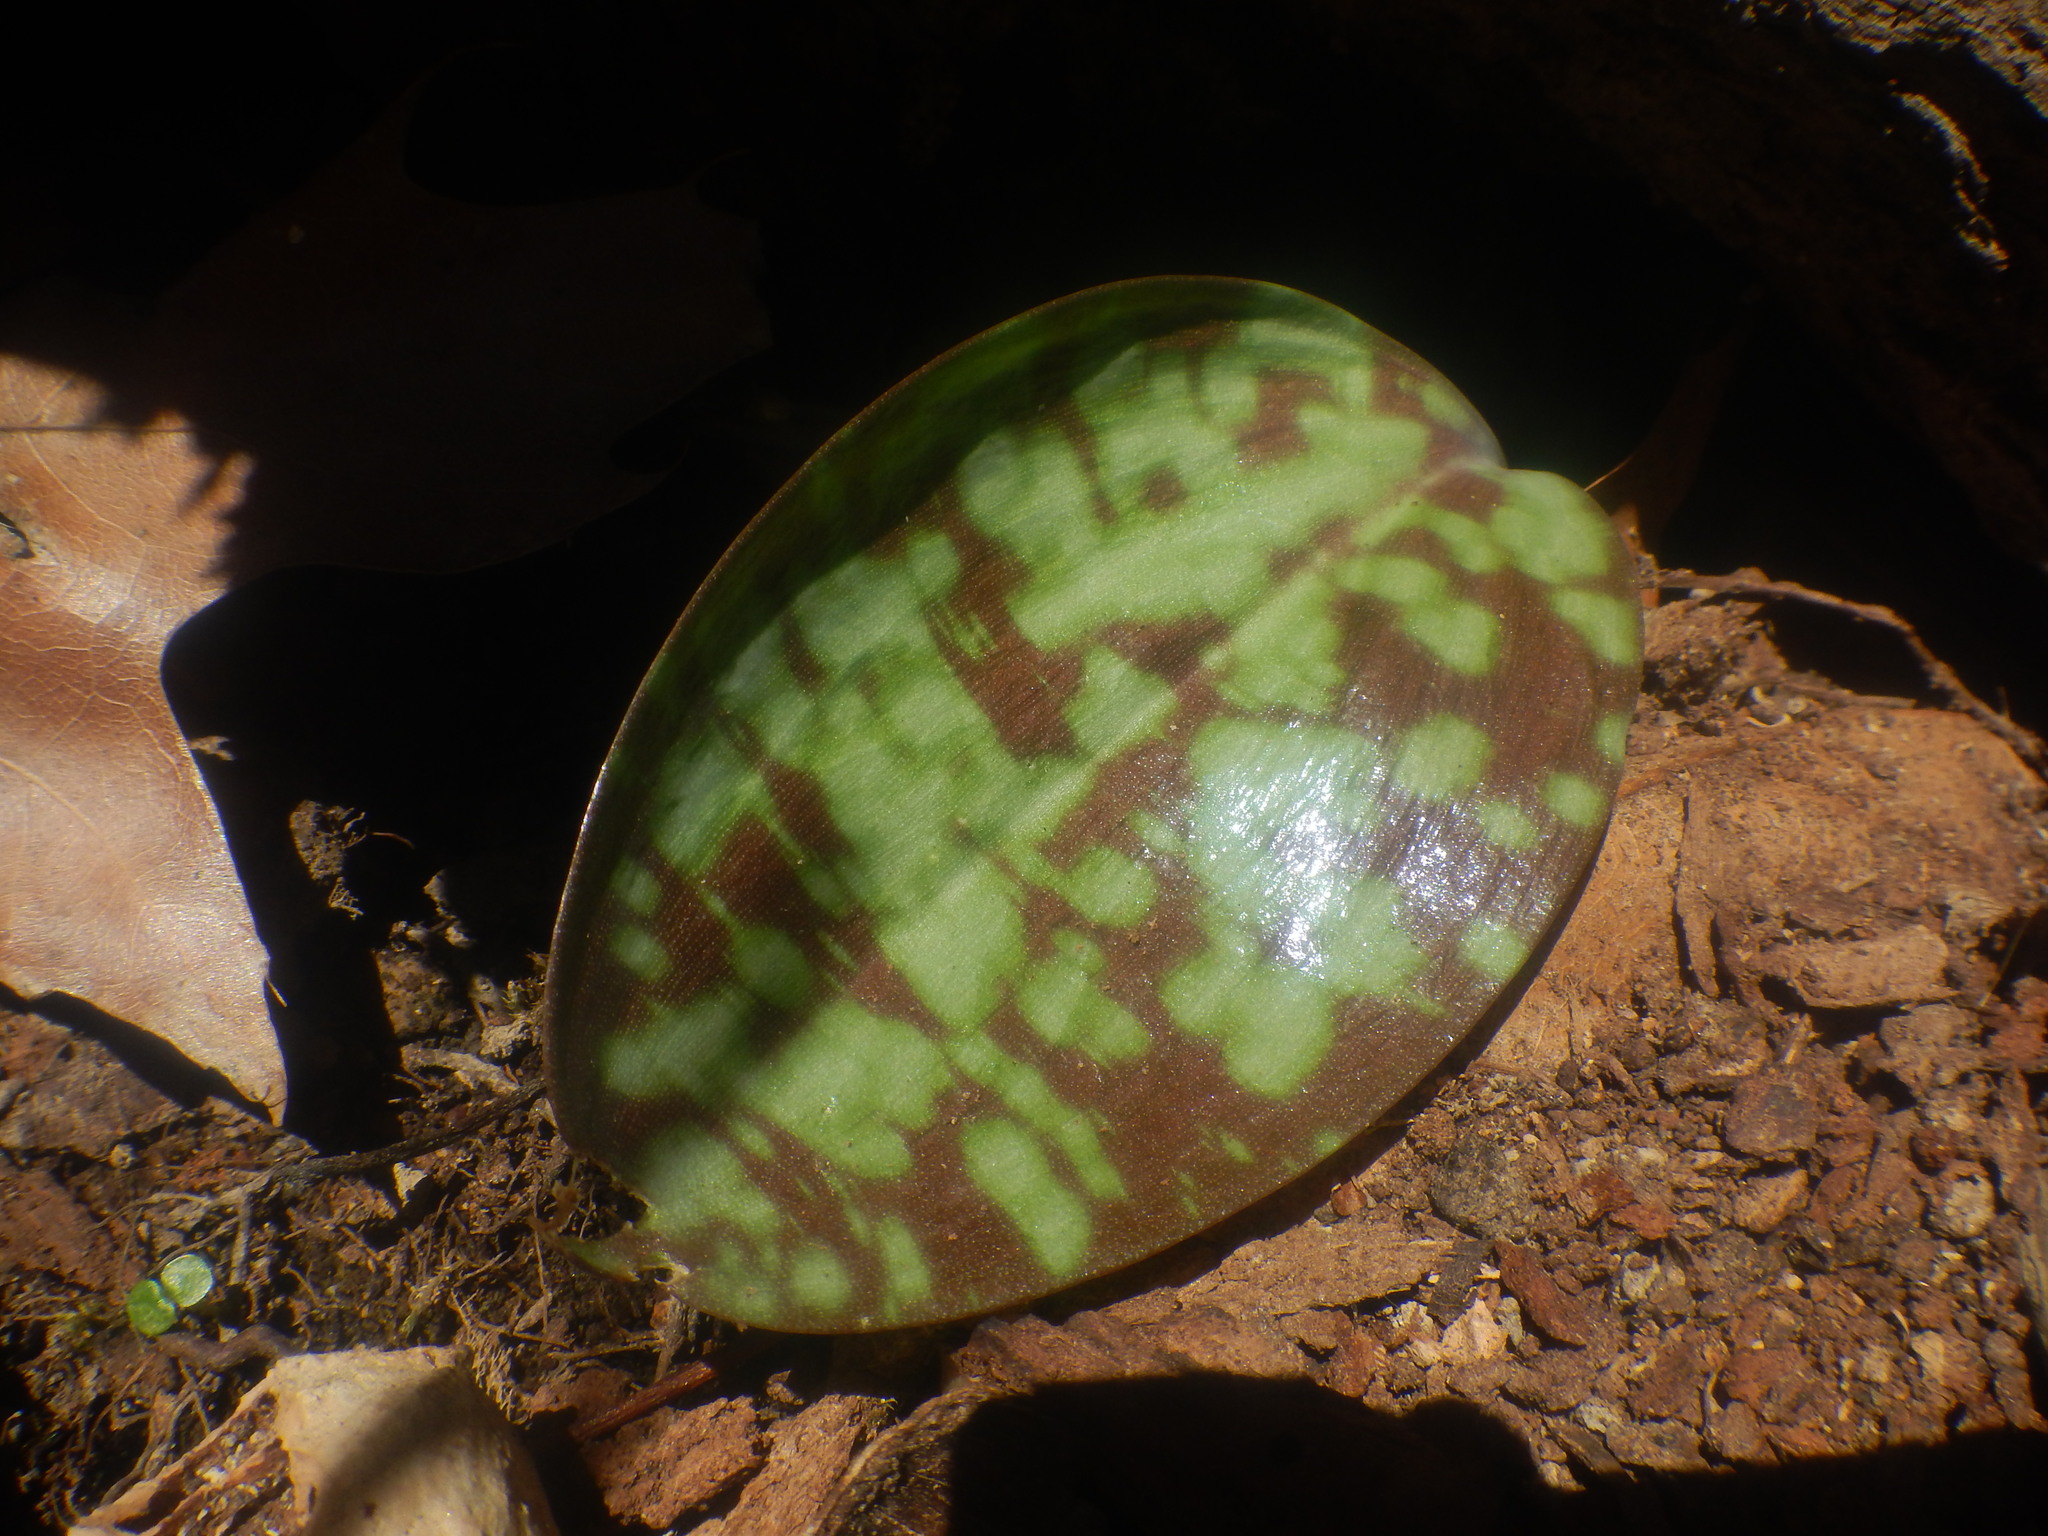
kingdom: Plantae
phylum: Tracheophyta
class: Liliopsida
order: Liliales
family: Liliaceae
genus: Erythronium
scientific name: Erythronium americanum
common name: Yellow adder's-tongue
